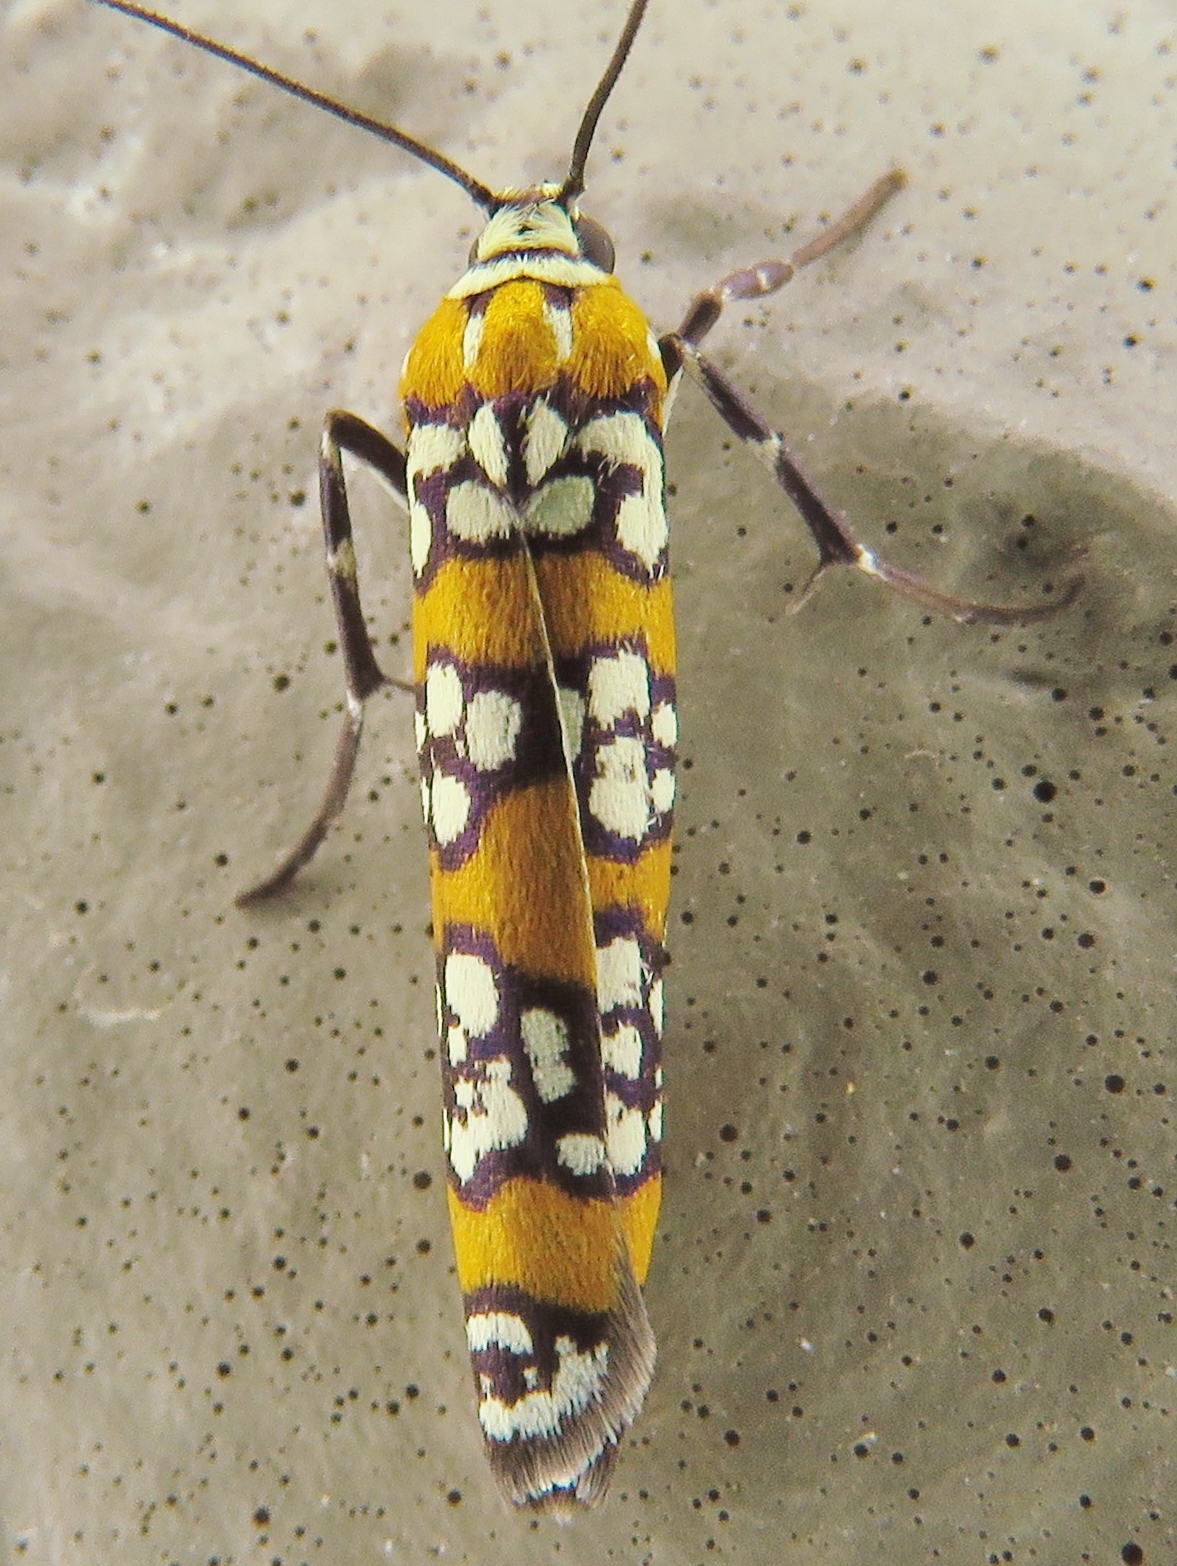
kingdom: Animalia
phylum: Arthropoda
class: Insecta
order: Lepidoptera
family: Attevidae
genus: Atteva
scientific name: Atteva punctella
